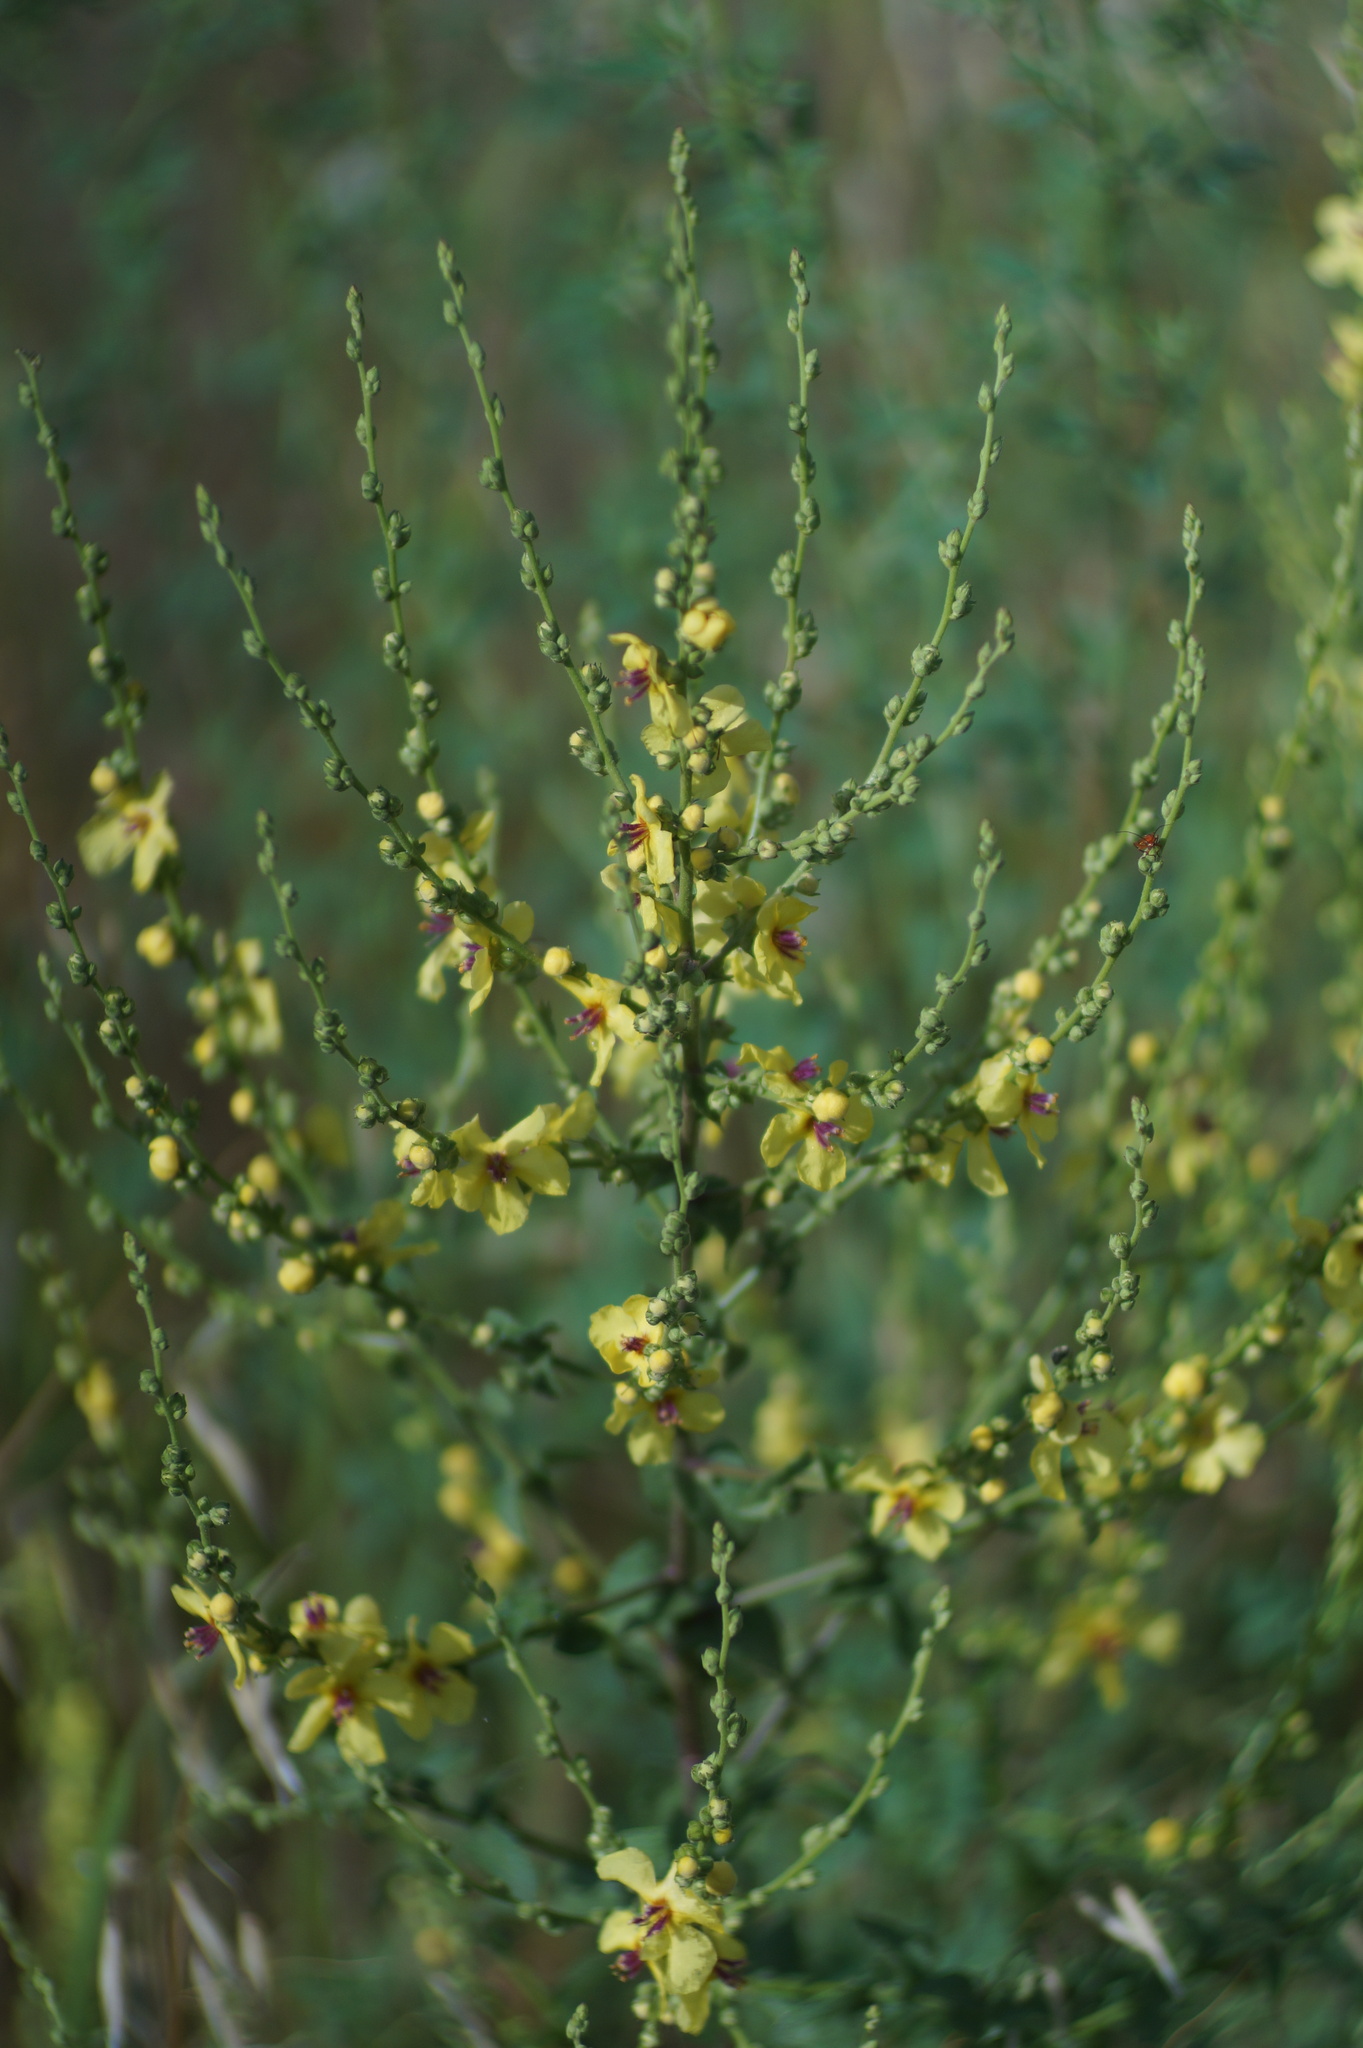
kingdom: Plantae
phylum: Tracheophyta
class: Magnoliopsida
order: Lamiales
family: Scrophulariaceae
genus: Verbascum
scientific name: Verbascum sinuatum
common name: Wavyleaf mullein
